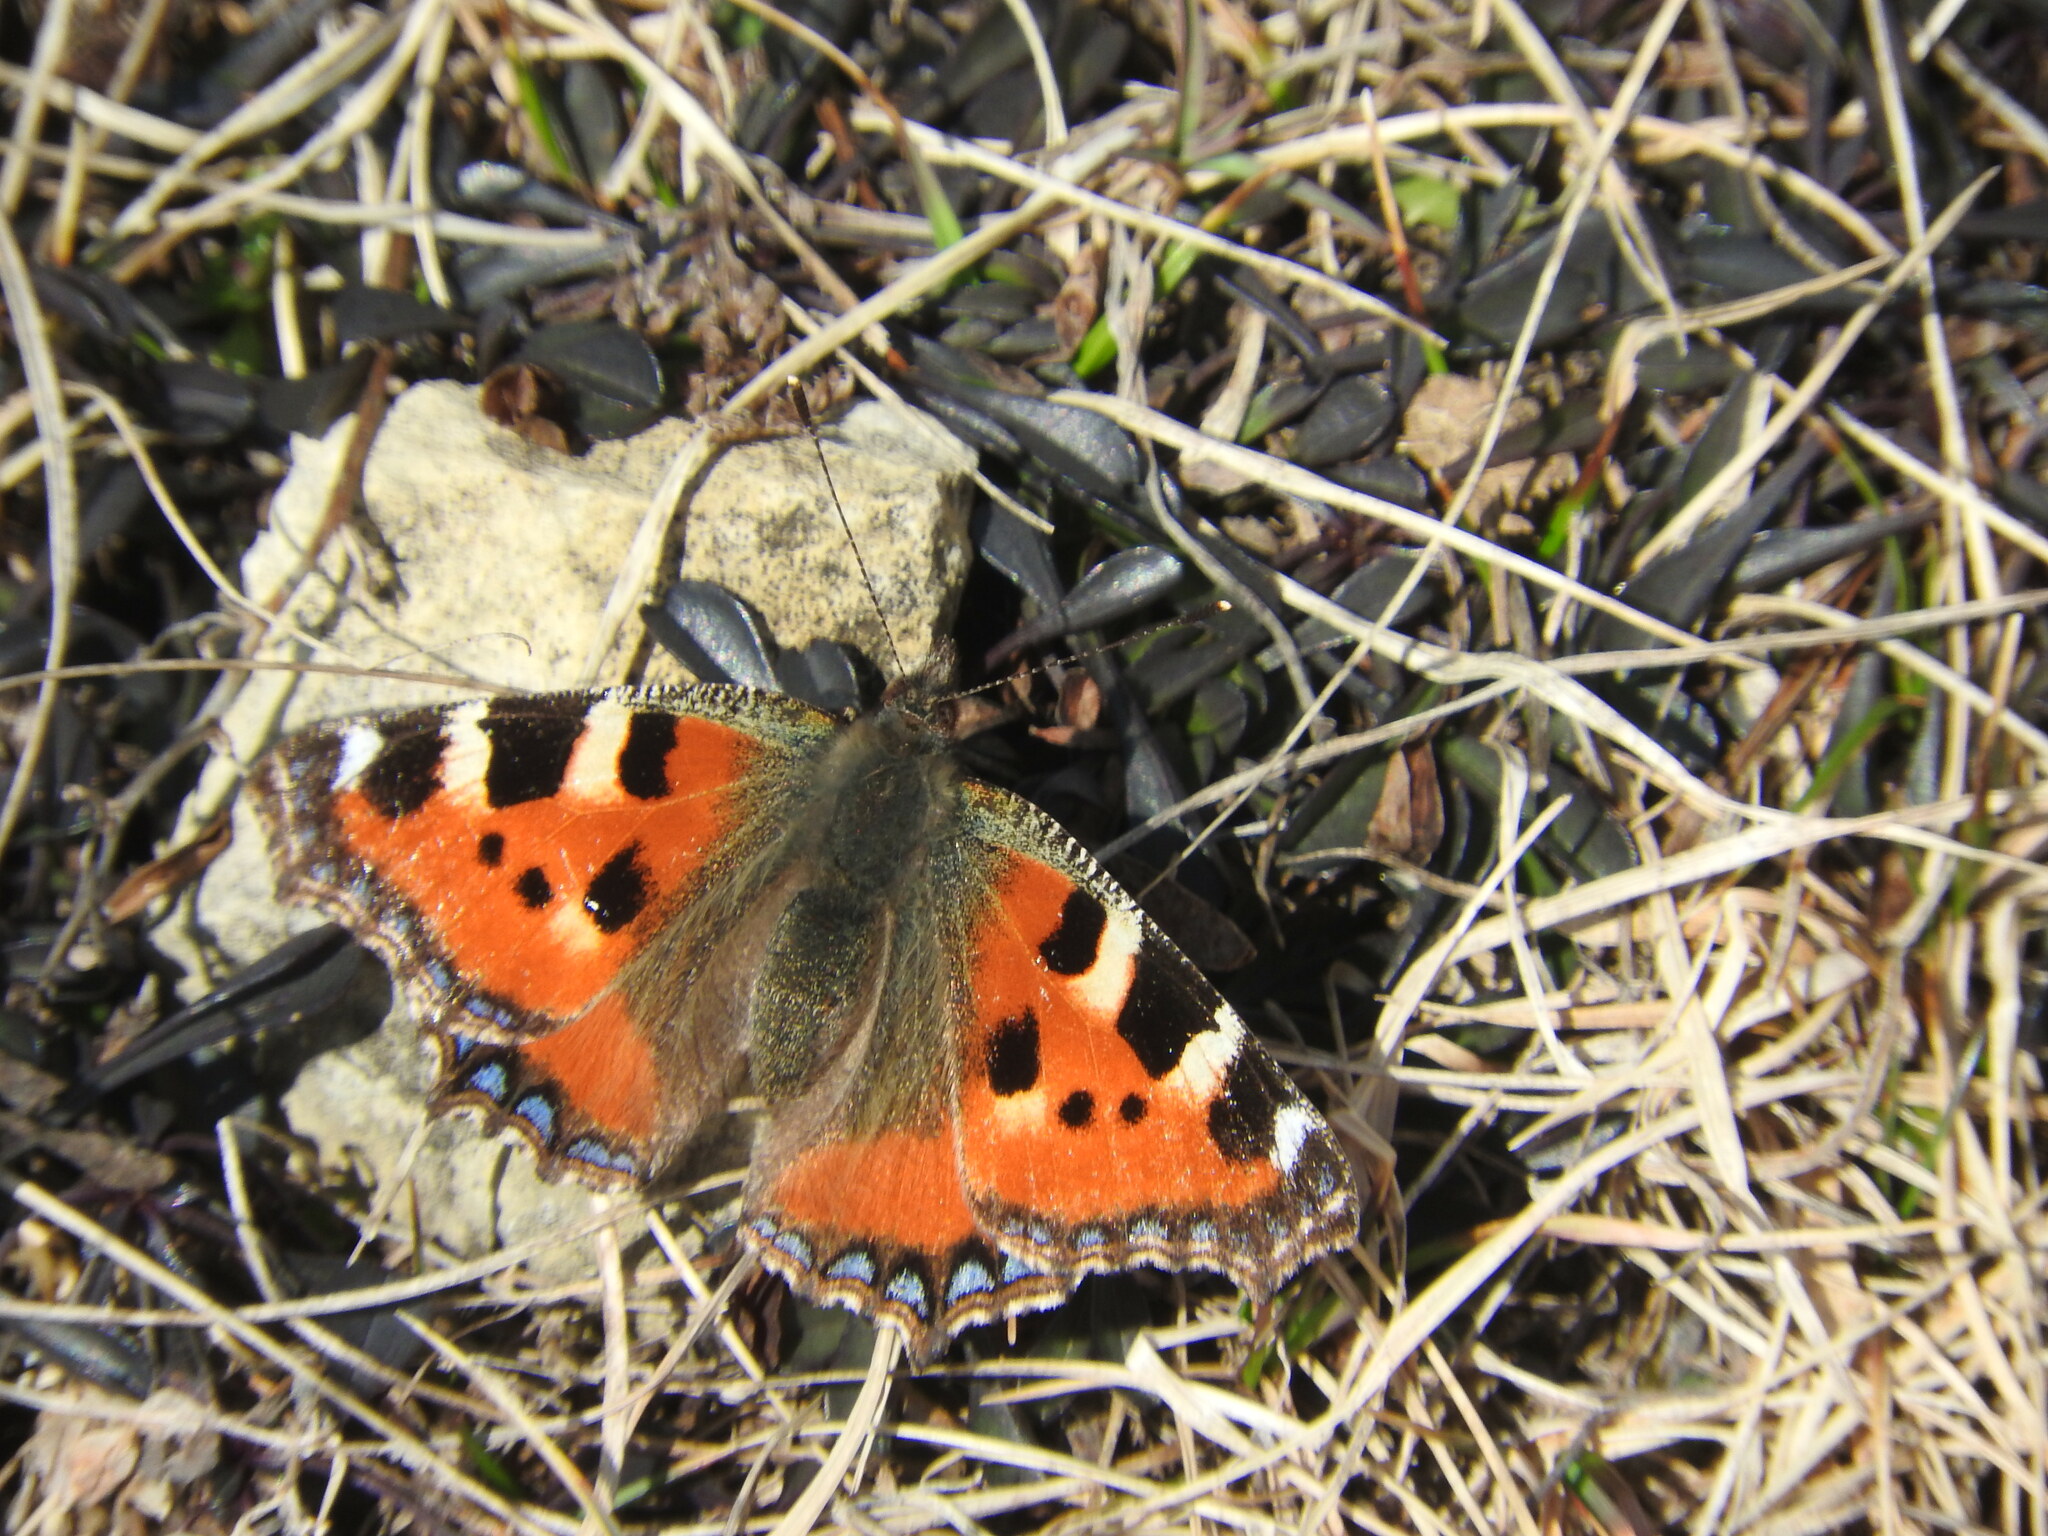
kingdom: Animalia
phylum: Arthropoda
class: Insecta
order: Lepidoptera
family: Nymphalidae
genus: Aglais
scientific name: Aglais urticae
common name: Small tortoiseshell
